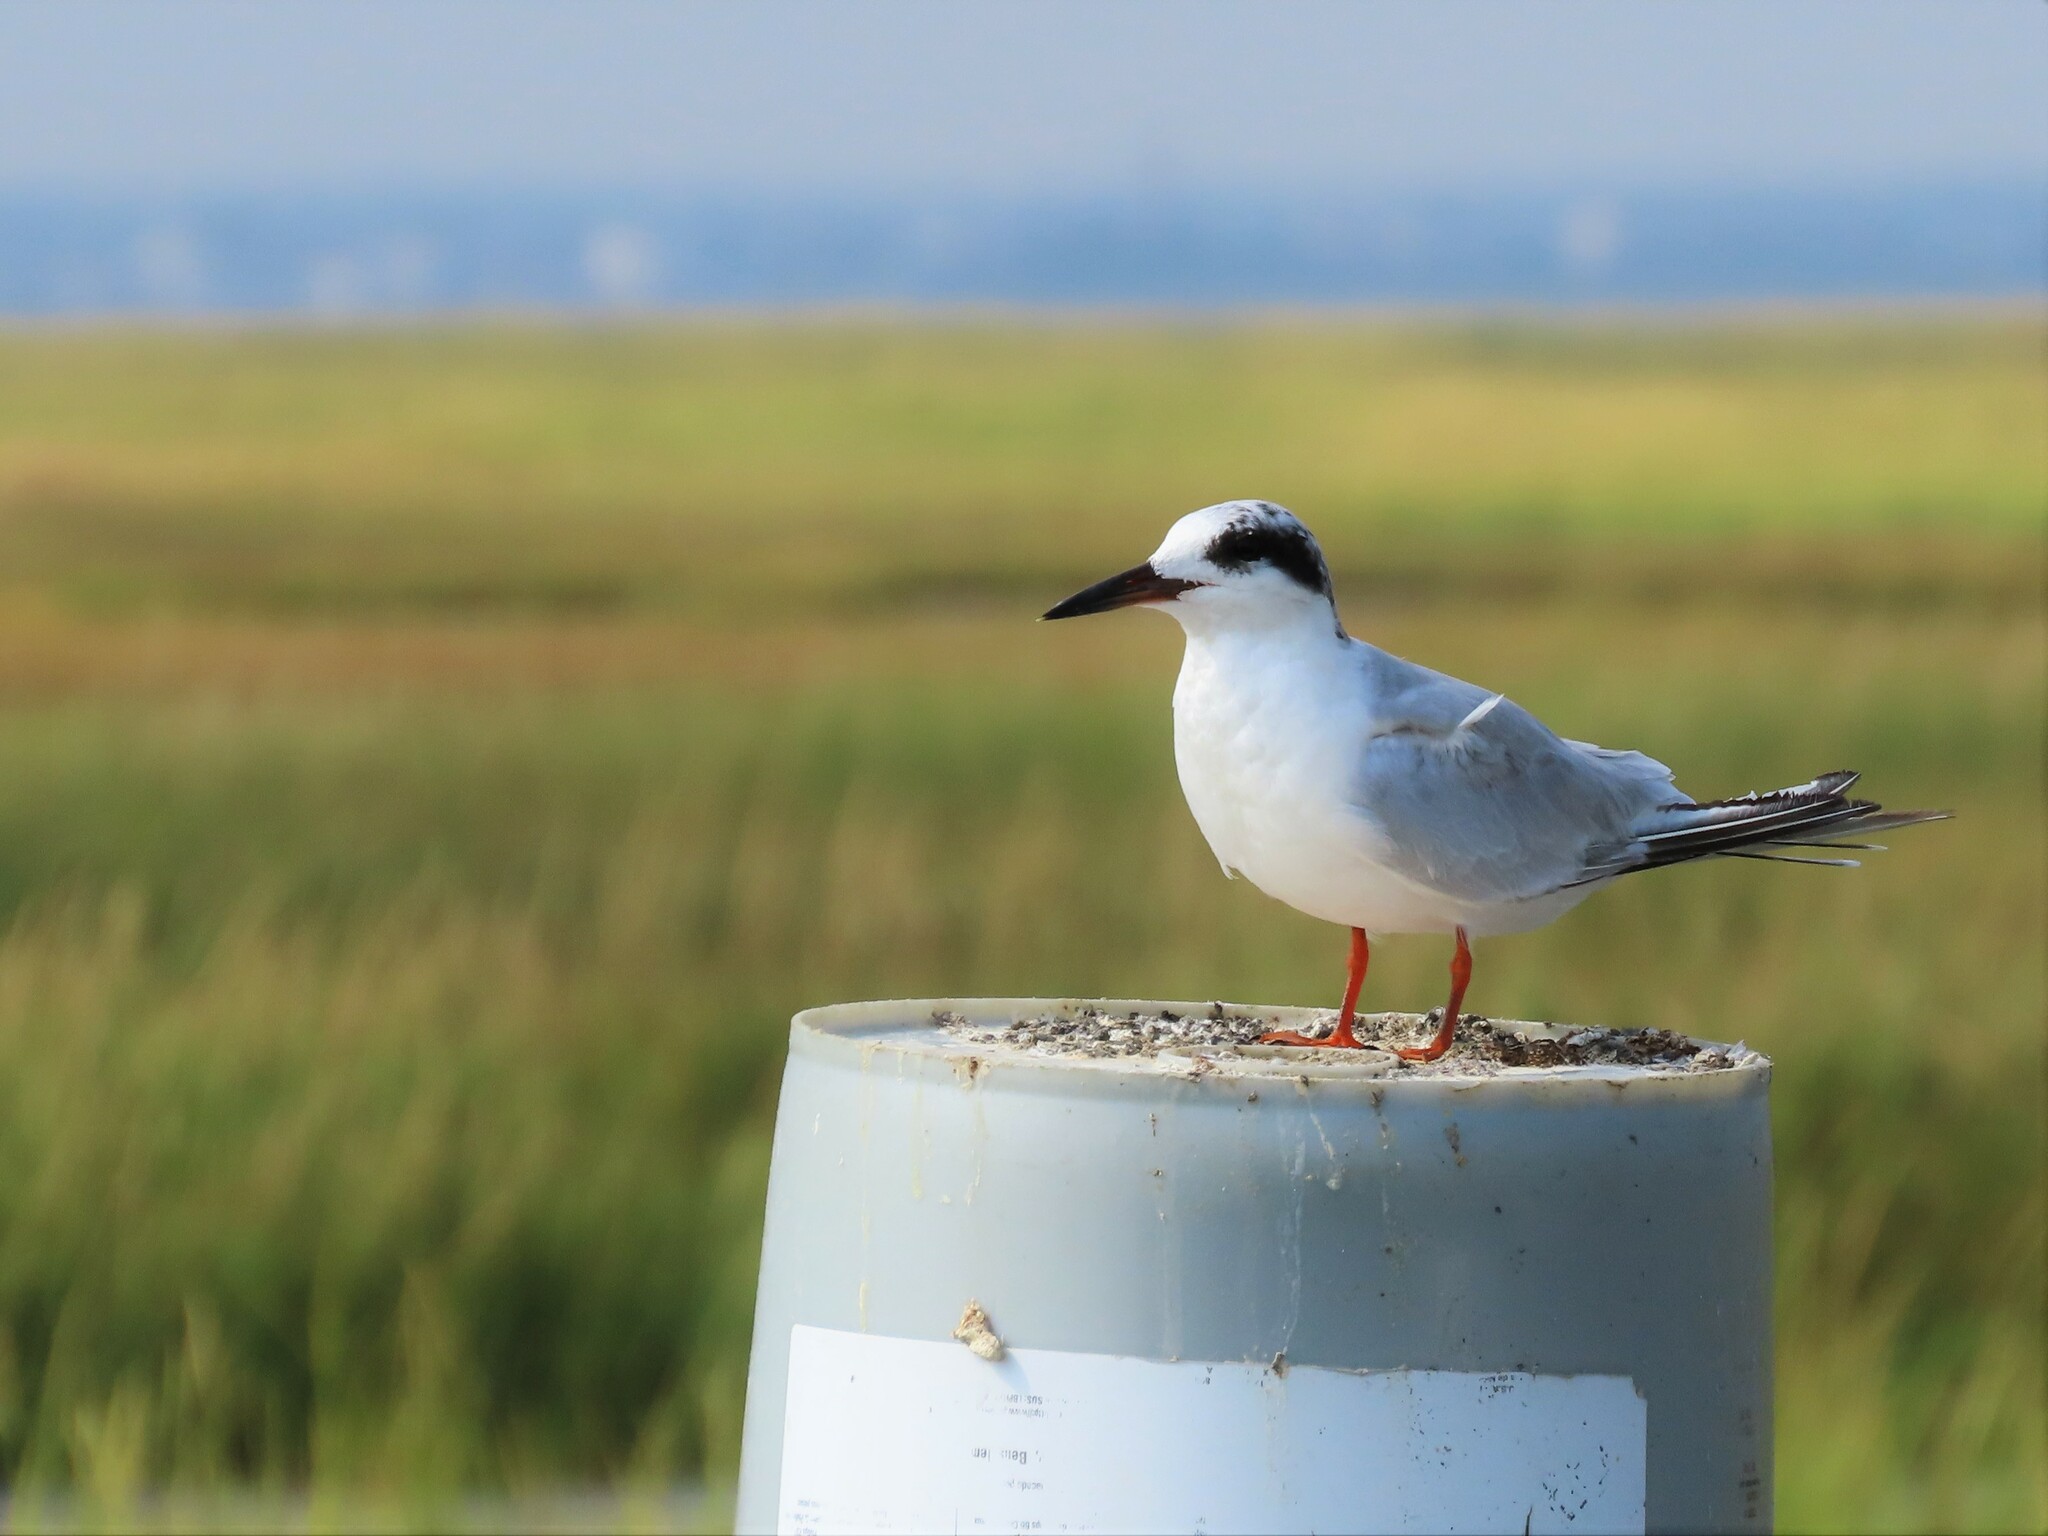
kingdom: Animalia
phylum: Chordata
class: Aves
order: Charadriiformes
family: Laridae
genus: Sterna
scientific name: Sterna forsteri
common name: Forster's tern
